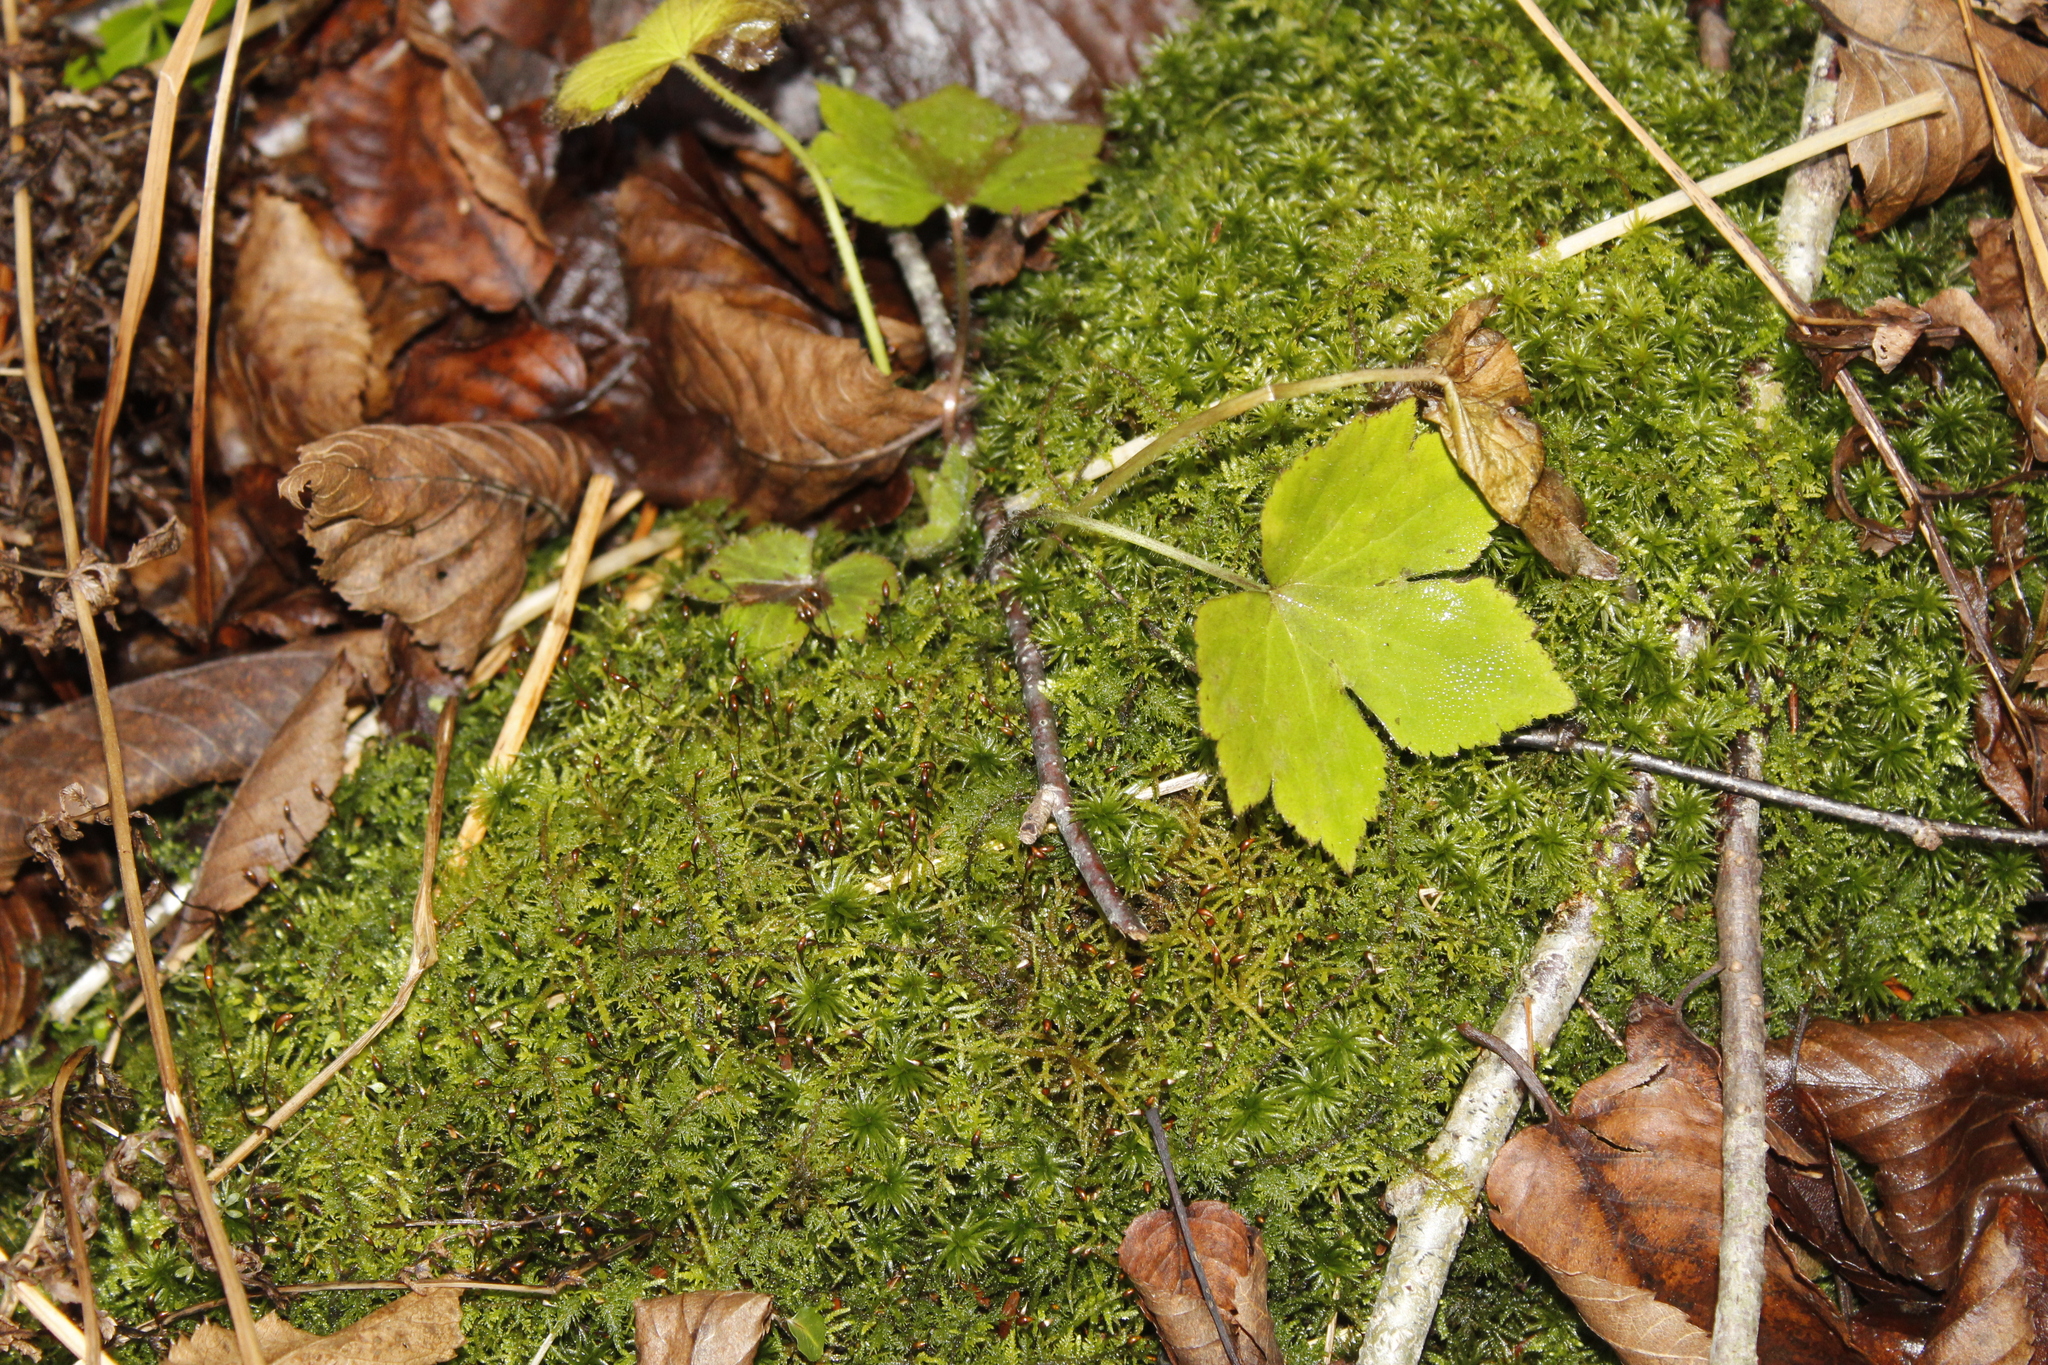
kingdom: Plantae
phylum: Tracheophyta
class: Magnoliopsida
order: Ranunculales
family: Ranunculaceae
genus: Ranunculus
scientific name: Ranunculus recurvatus
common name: Blisterwort
